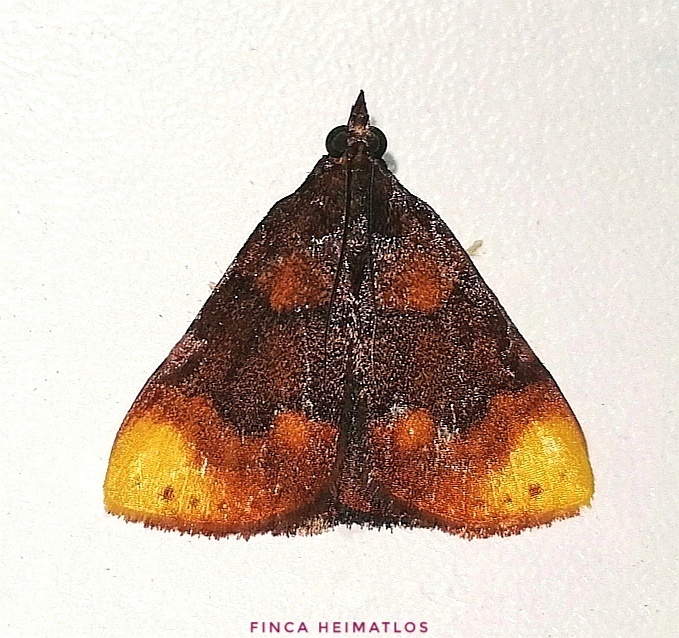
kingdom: Animalia
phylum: Arthropoda
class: Insecta
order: Lepidoptera
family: Pyralidae
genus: Paramacna
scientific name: Paramacna nattereri
